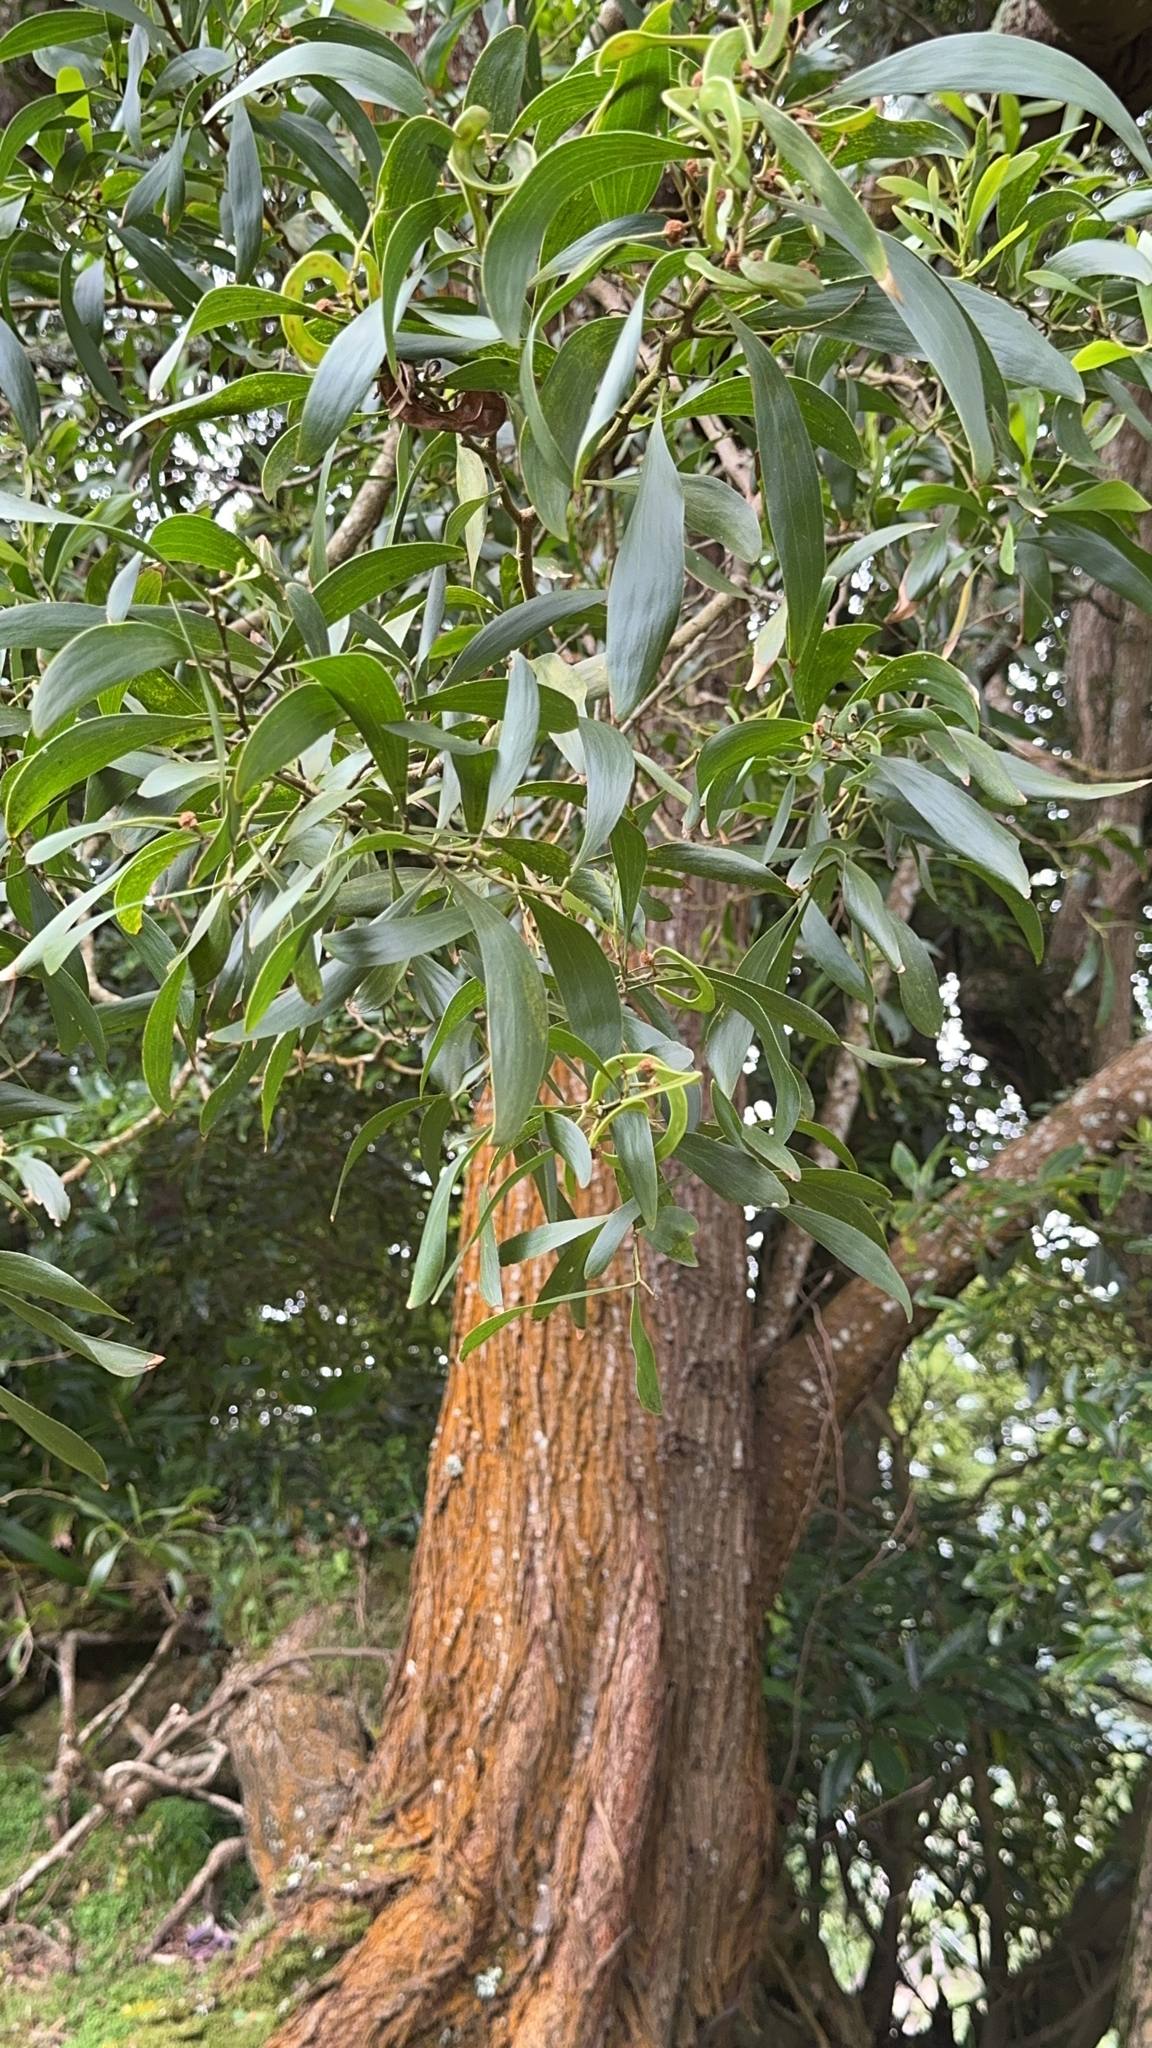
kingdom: Plantae
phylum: Tracheophyta
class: Magnoliopsida
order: Fabales
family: Fabaceae
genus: Acacia
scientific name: Acacia melanoxylon
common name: Blackwood
